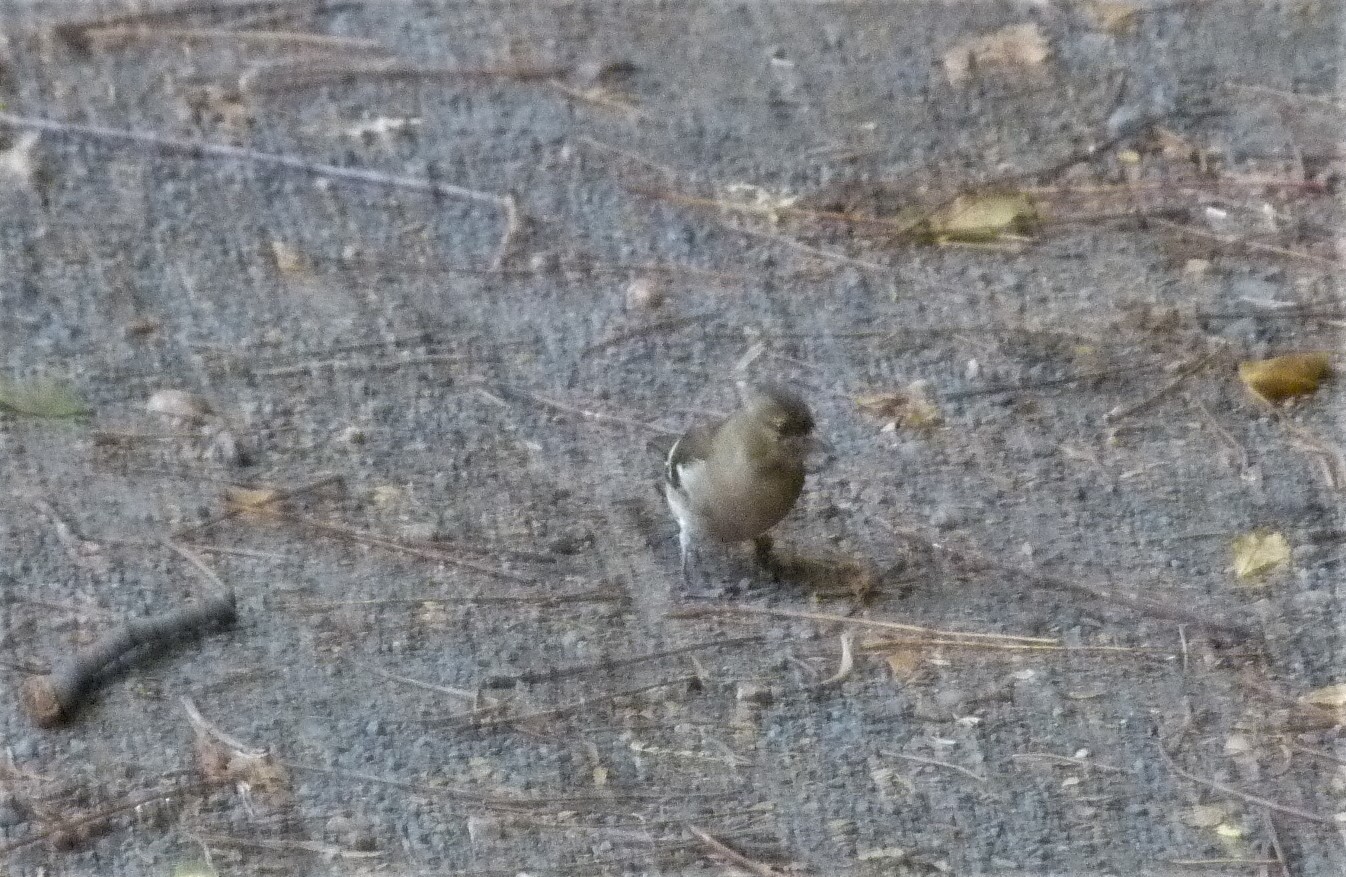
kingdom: Animalia
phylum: Chordata
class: Aves
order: Passeriformes
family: Fringillidae
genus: Fringilla
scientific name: Fringilla coelebs
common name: Common chaffinch
